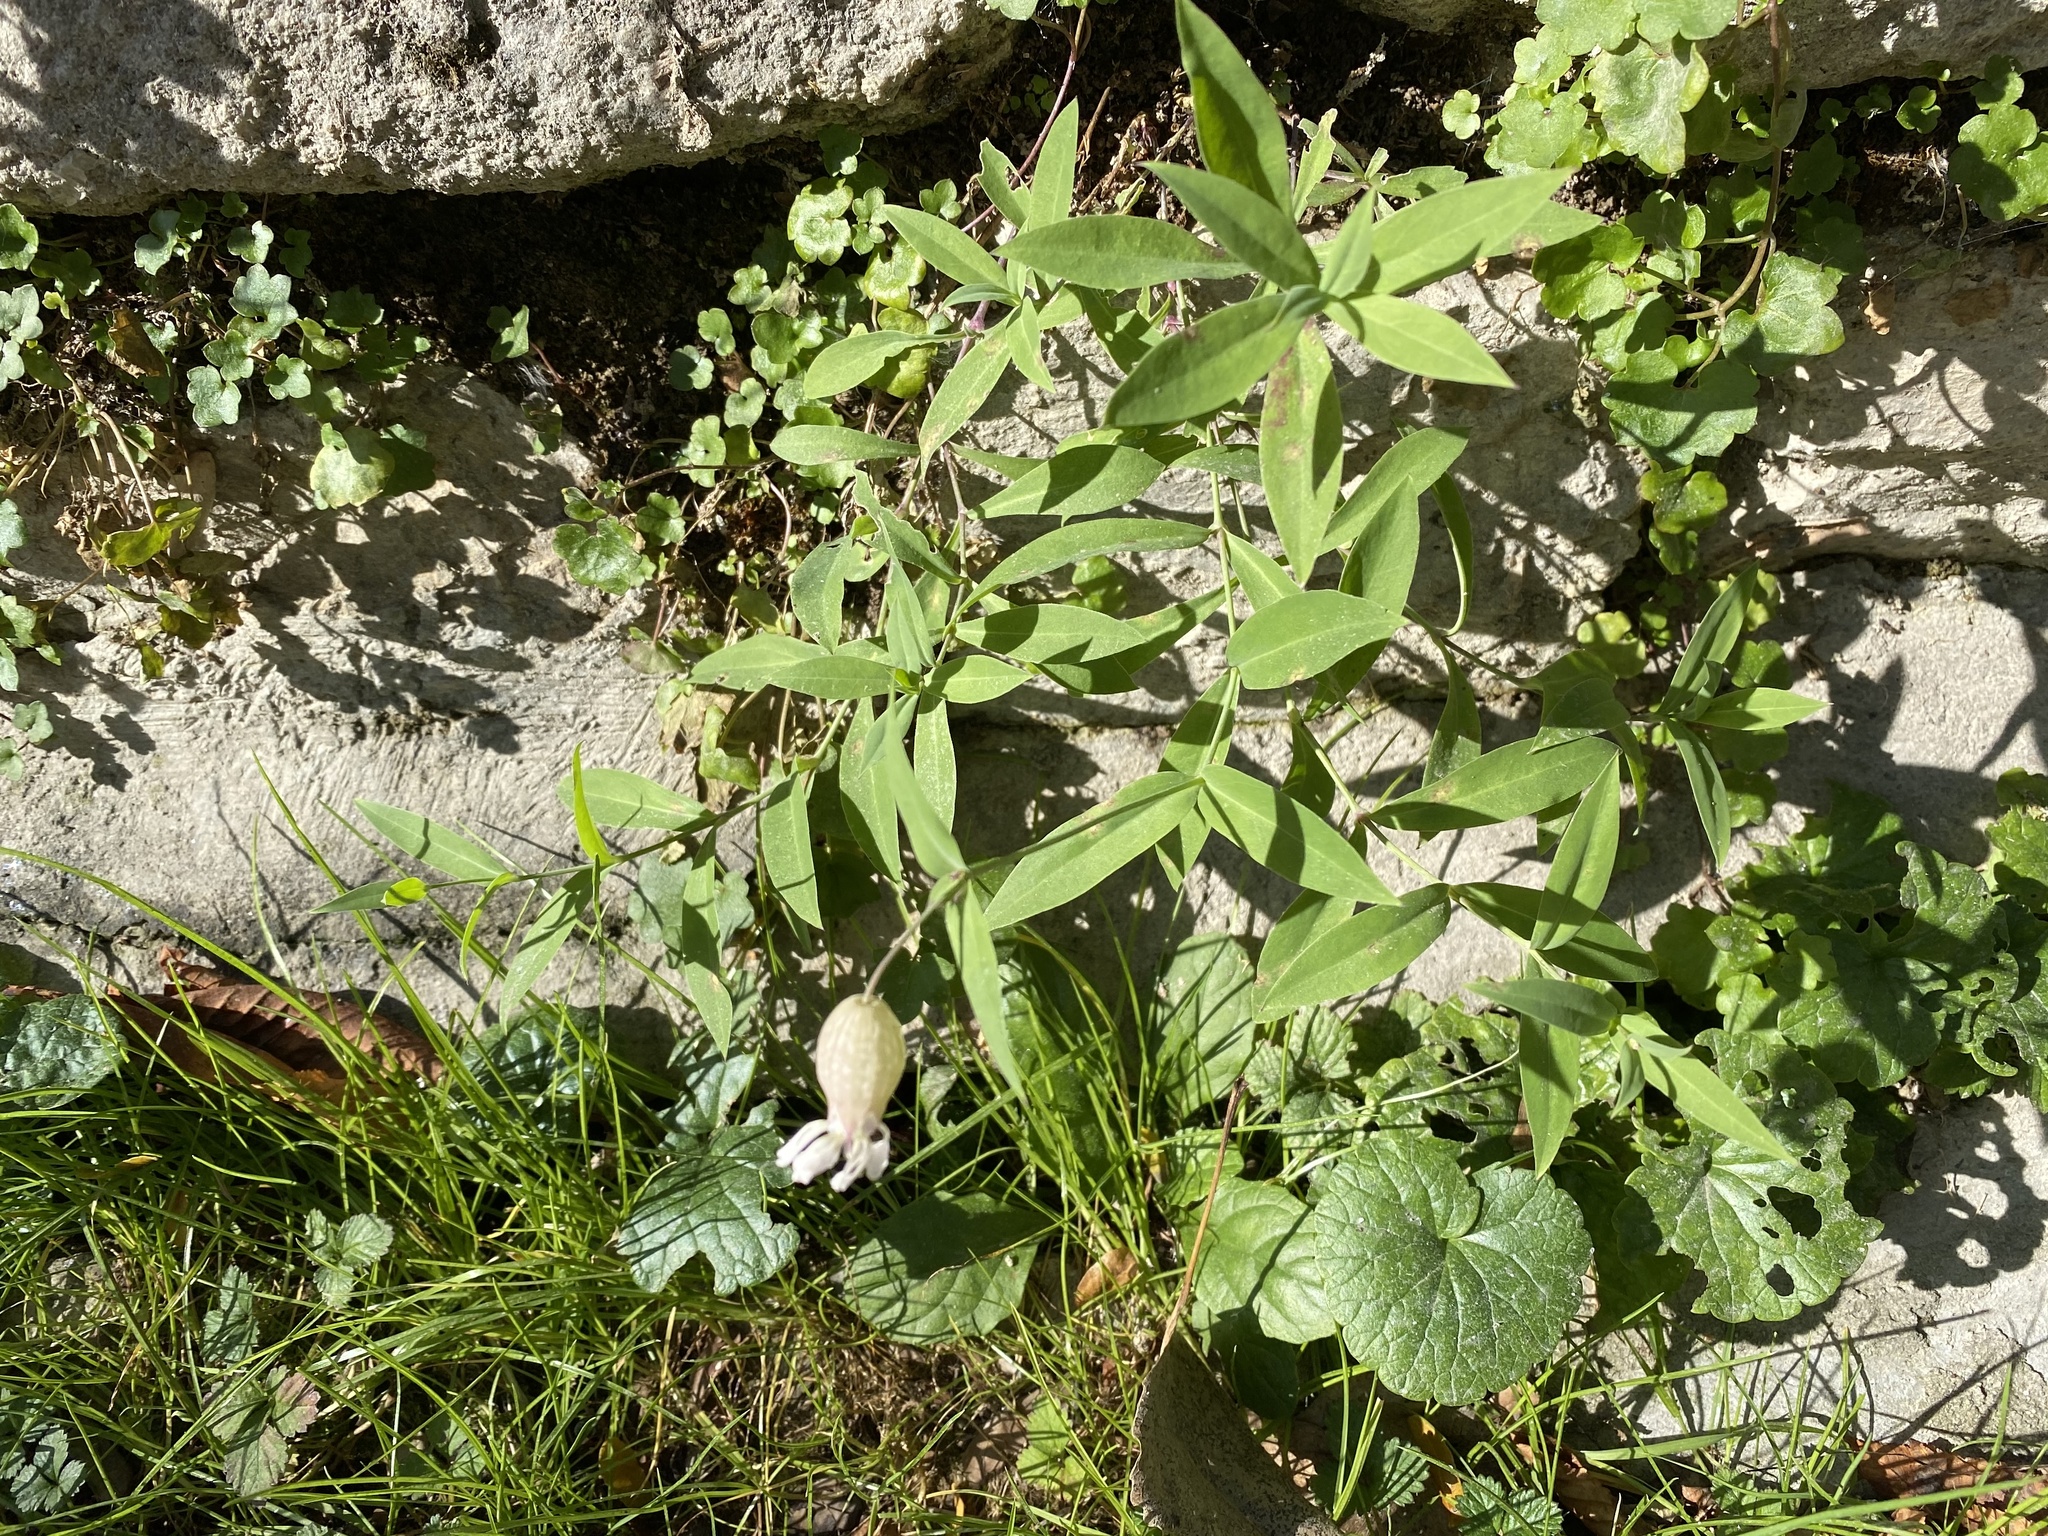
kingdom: Plantae
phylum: Tracheophyta
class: Magnoliopsida
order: Caryophyllales
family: Caryophyllaceae
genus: Silene
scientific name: Silene vulgaris
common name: Bladder campion
